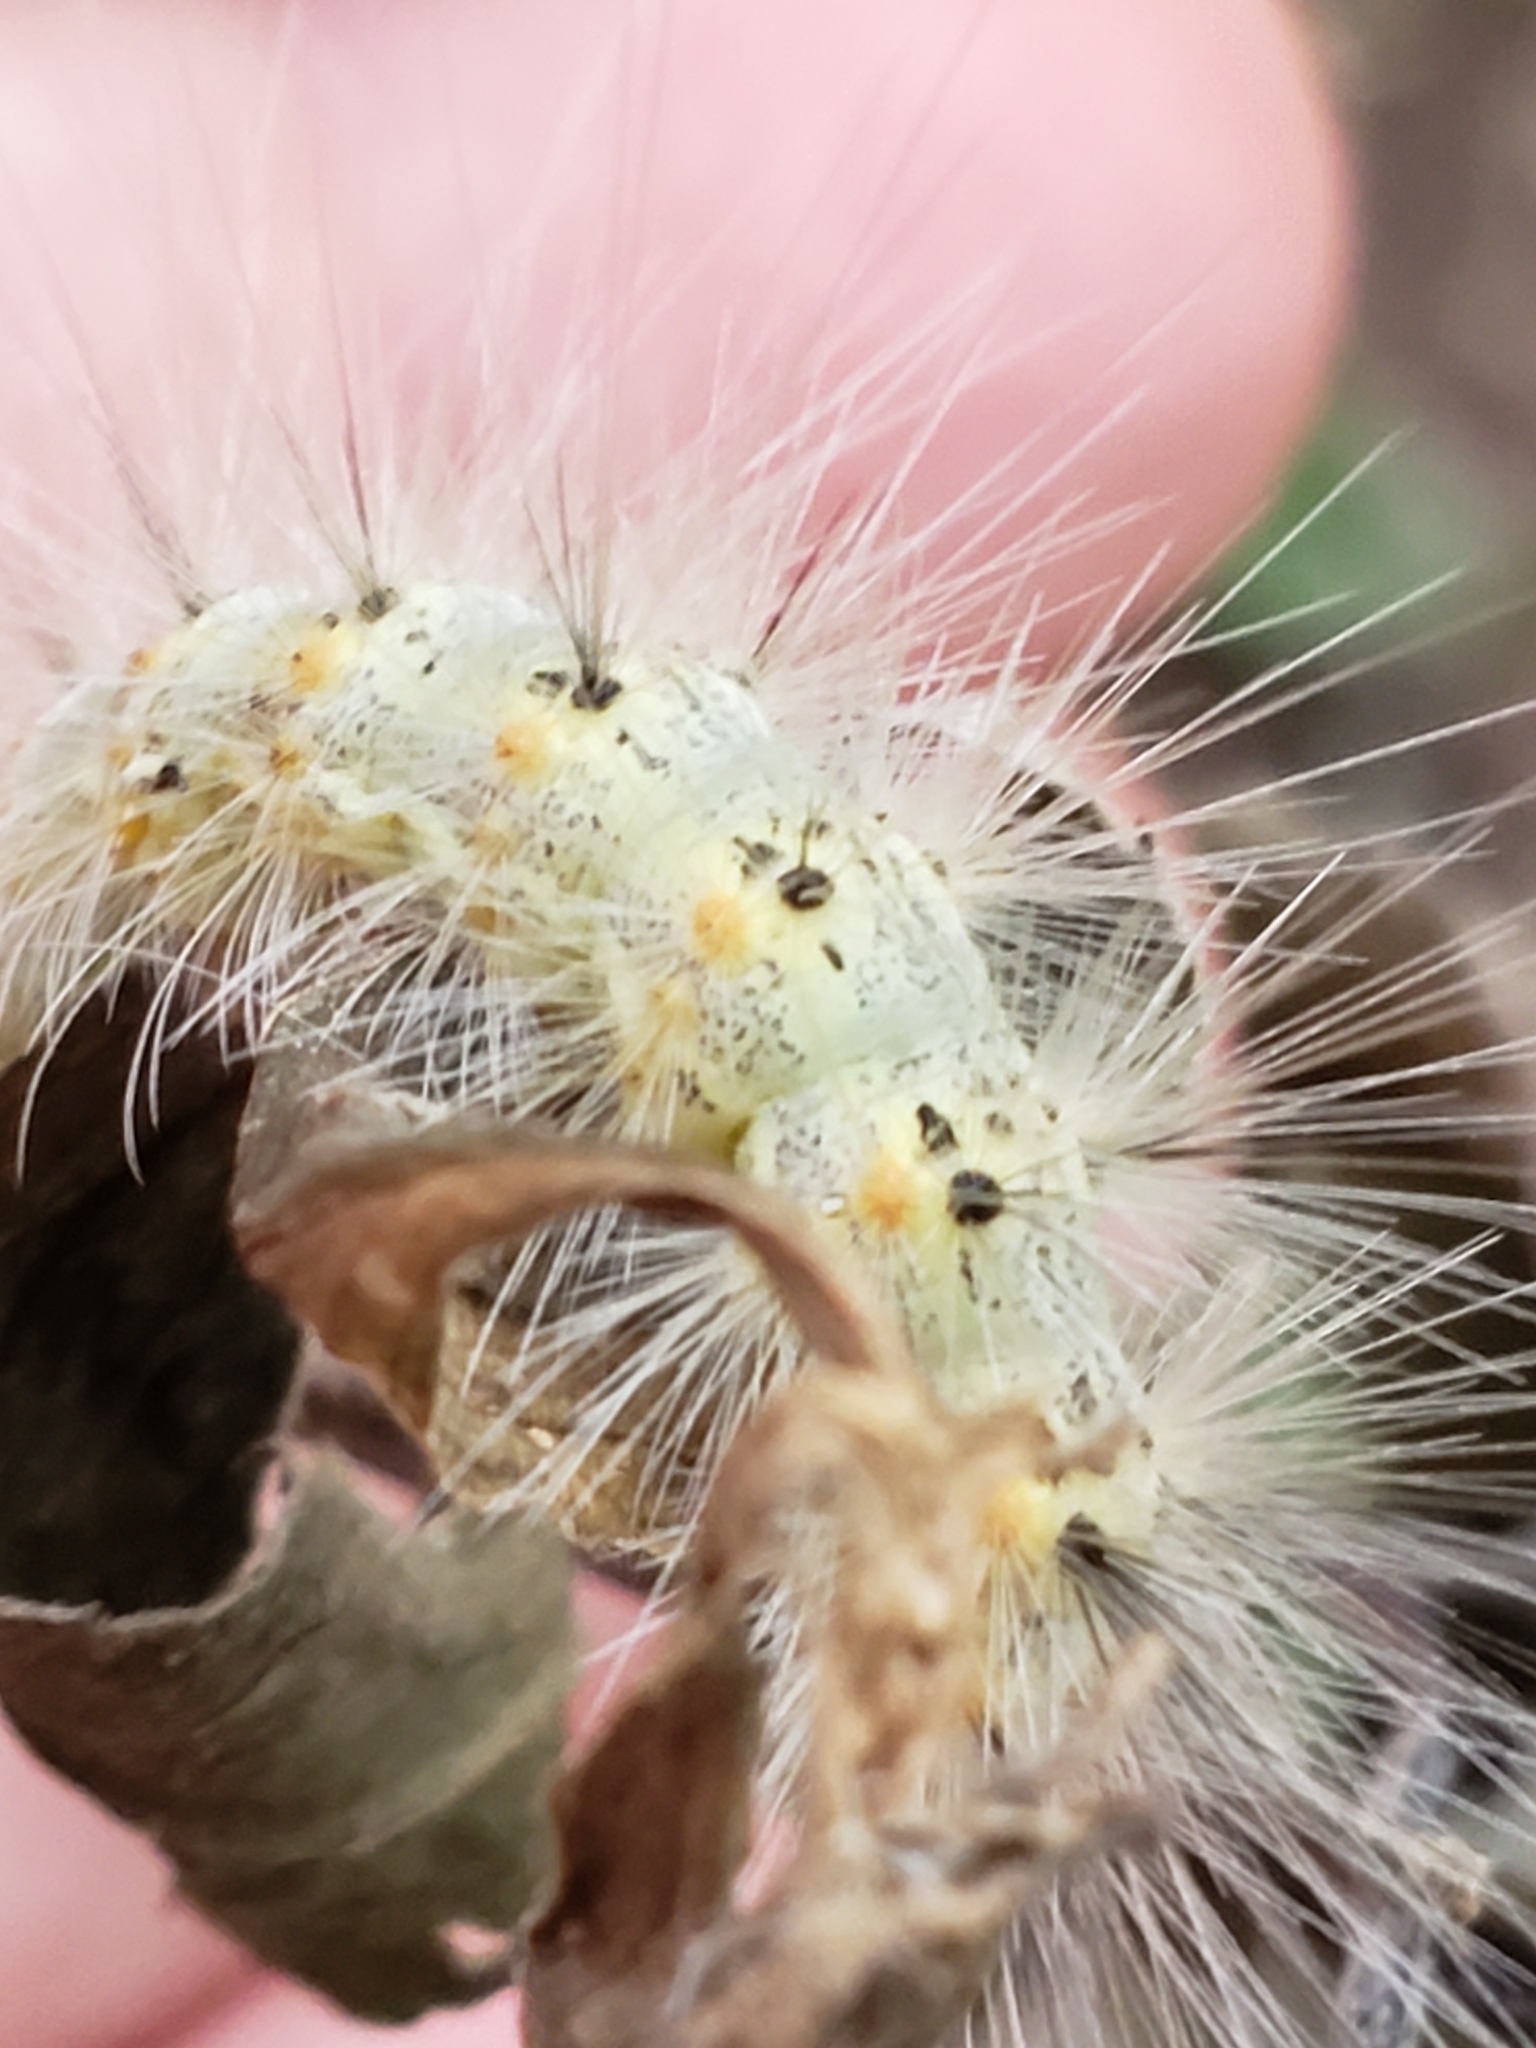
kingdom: Animalia
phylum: Arthropoda
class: Insecta
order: Lepidoptera
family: Erebidae
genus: Hyphantria
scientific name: Hyphantria cunea
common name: American white moth
